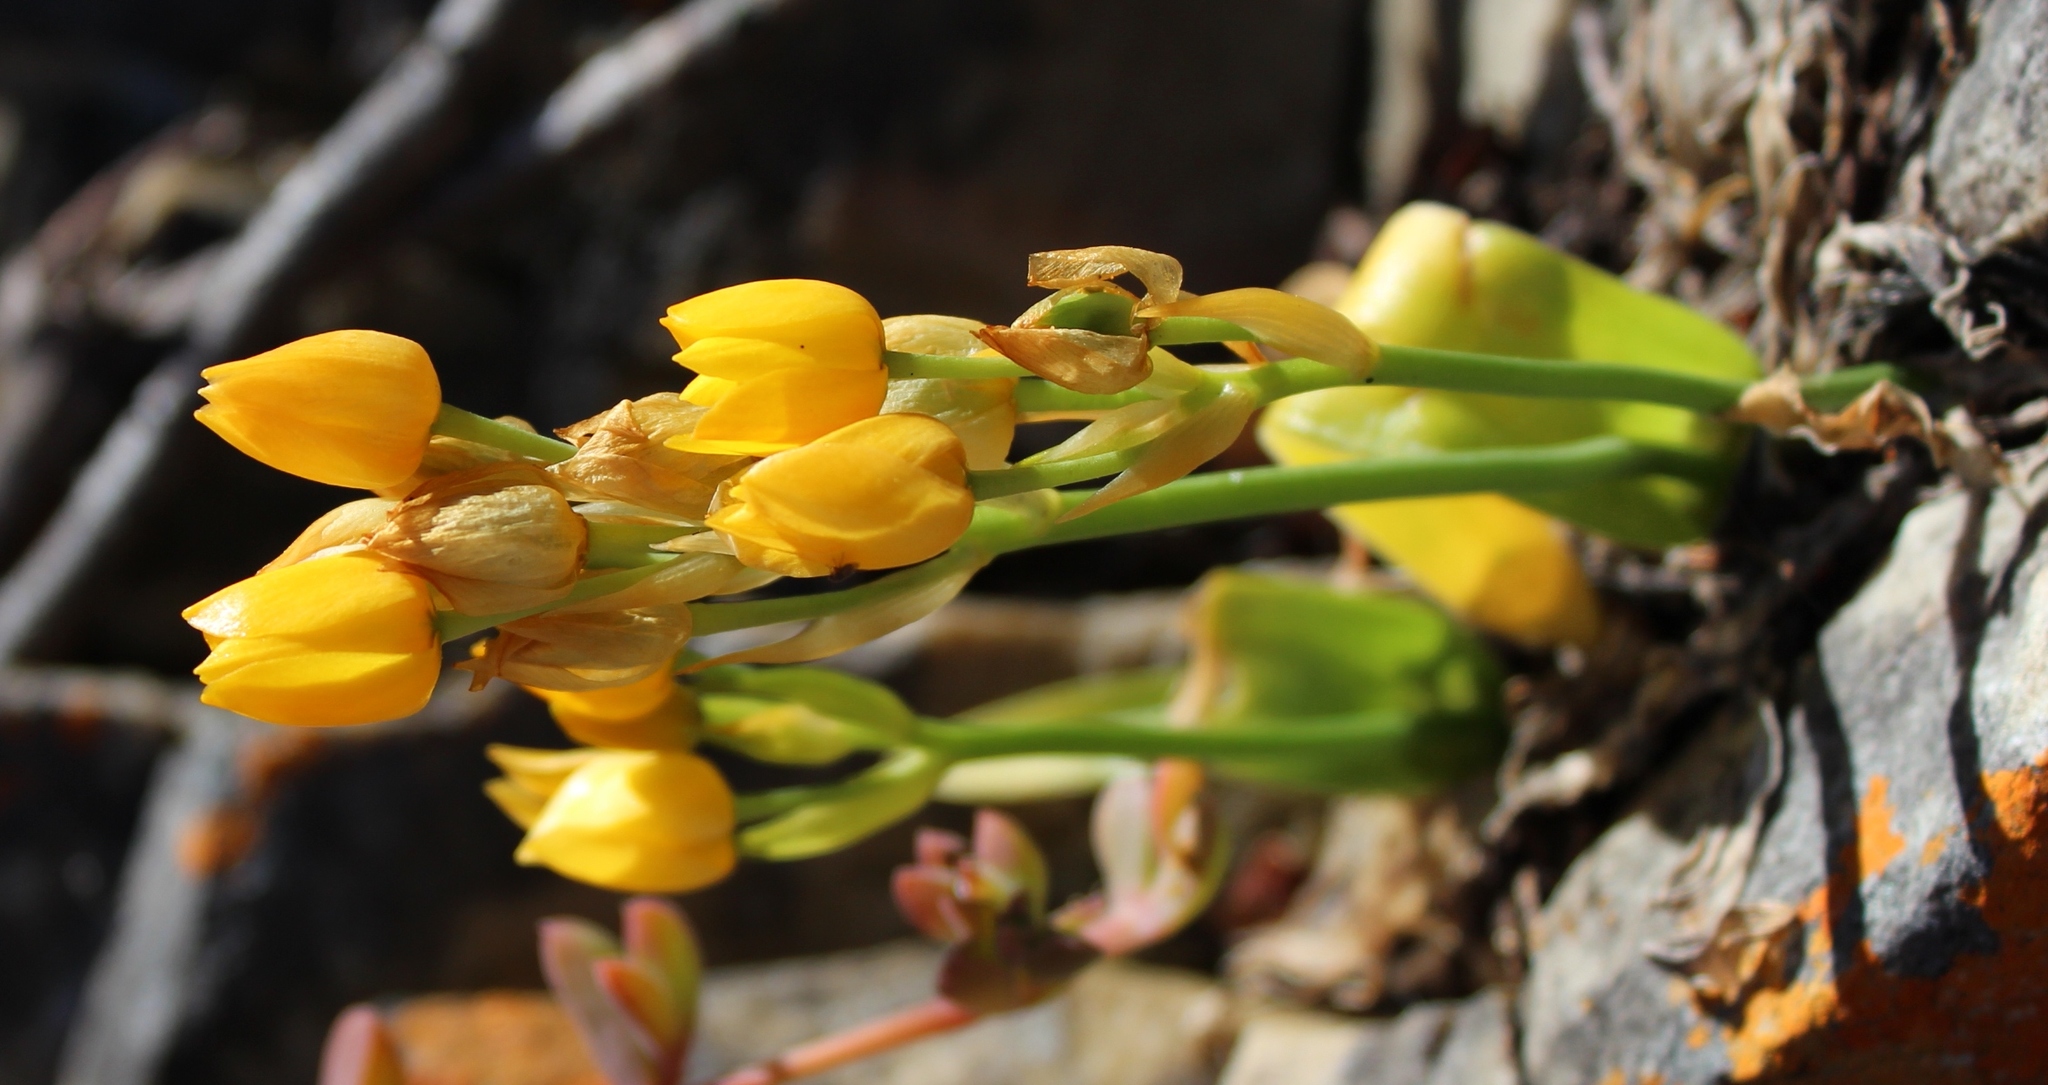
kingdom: Plantae
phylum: Tracheophyta
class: Liliopsida
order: Asparagales
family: Asparagaceae
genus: Ornithogalum
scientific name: Ornithogalum dubium
